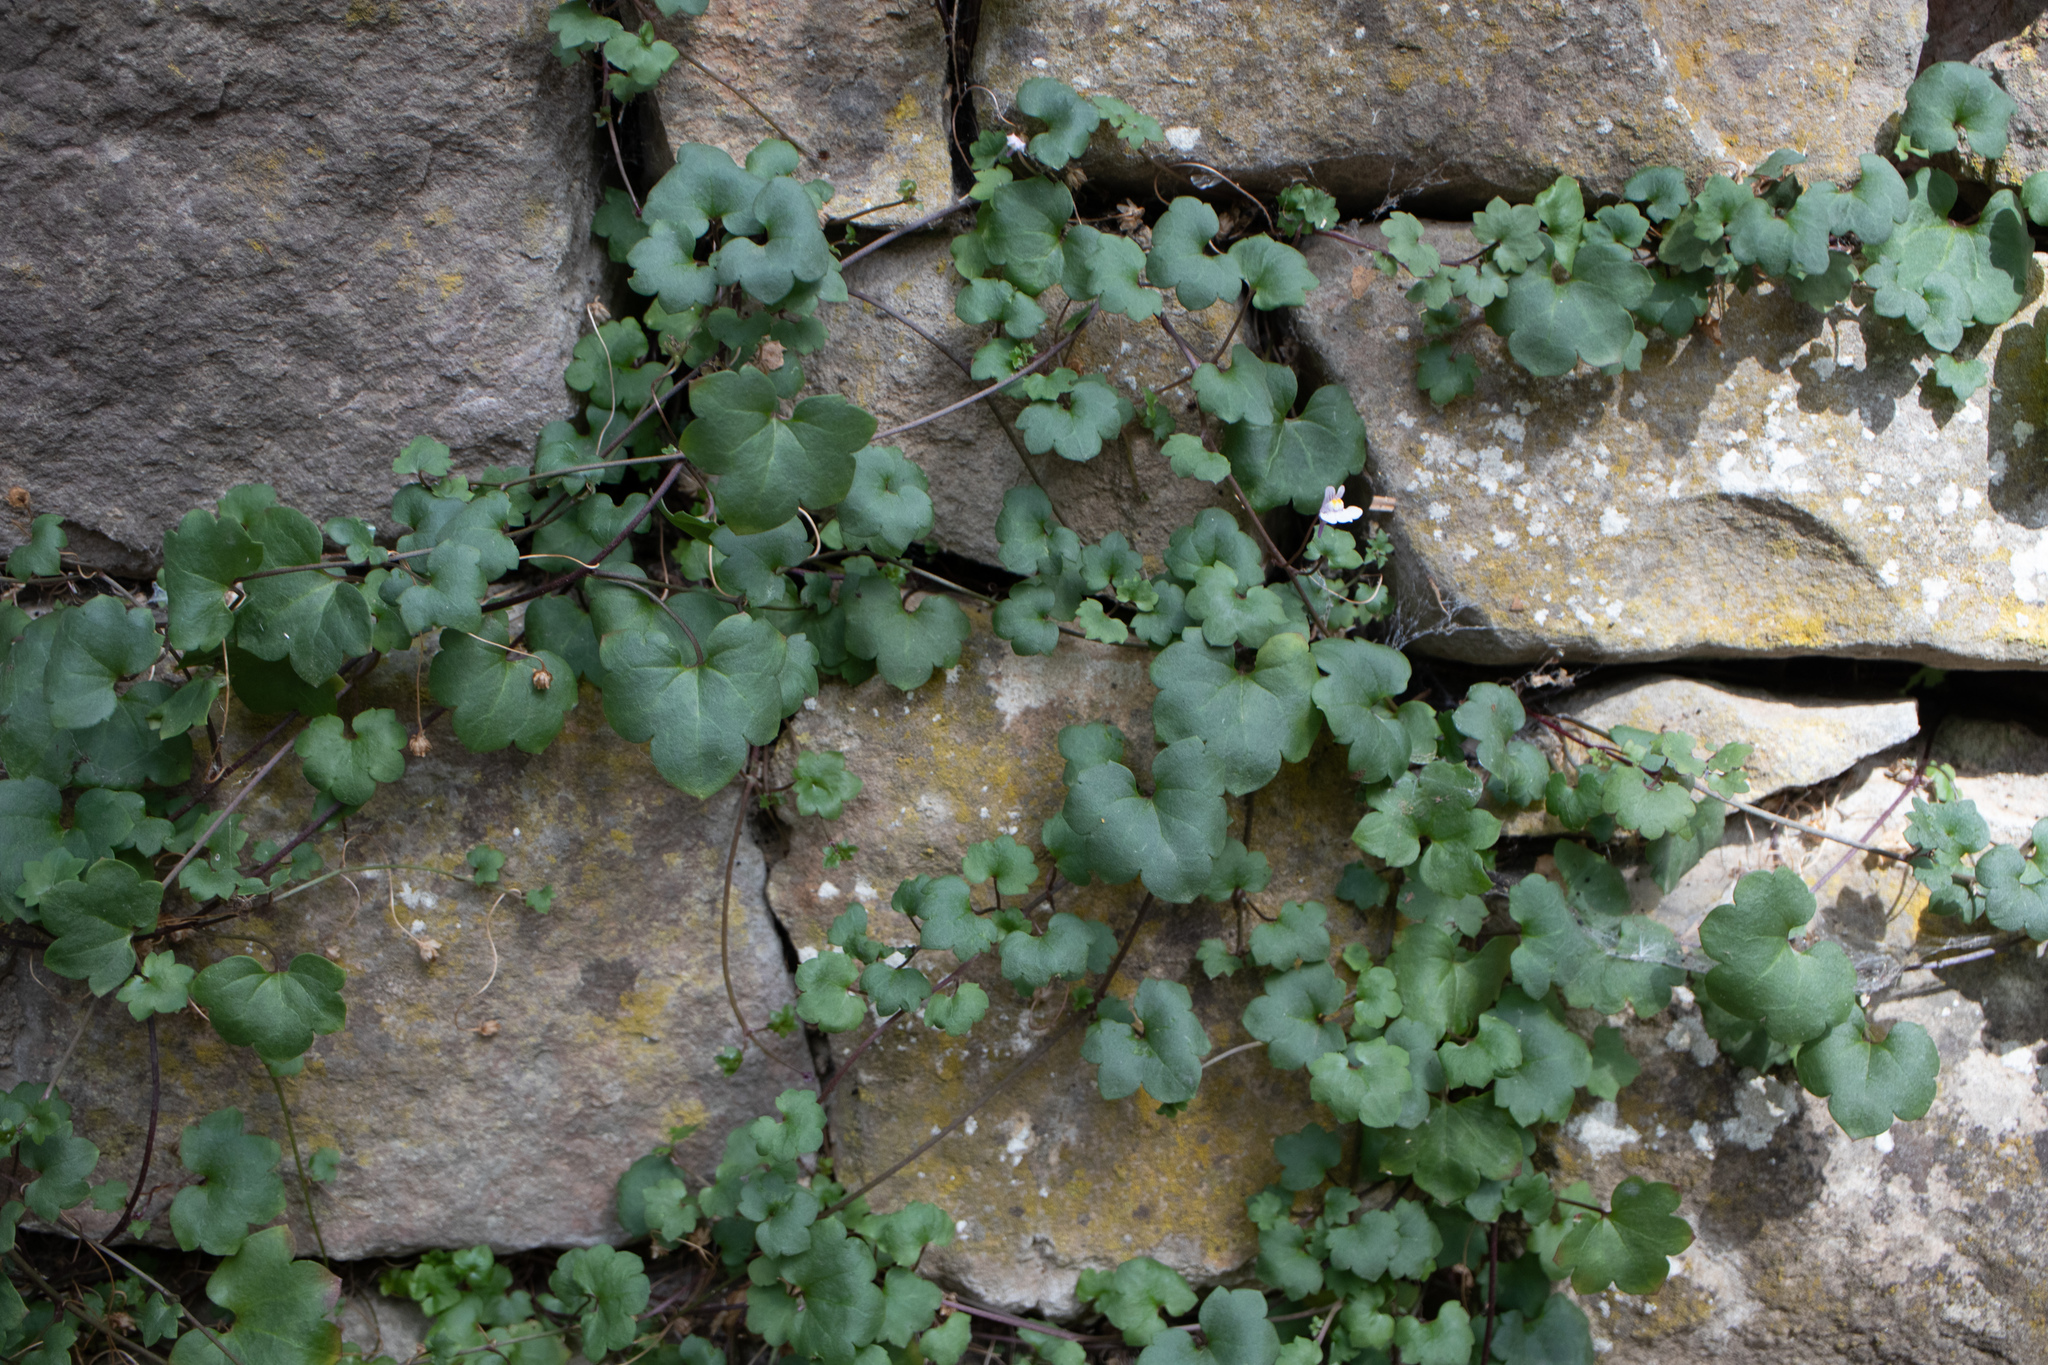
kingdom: Plantae
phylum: Tracheophyta
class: Magnoliopsida
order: Lamiales
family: Plantaginaceae
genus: Cymbalaria
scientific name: Cymbalaria muralis
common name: Ivy-leaved toadflax
